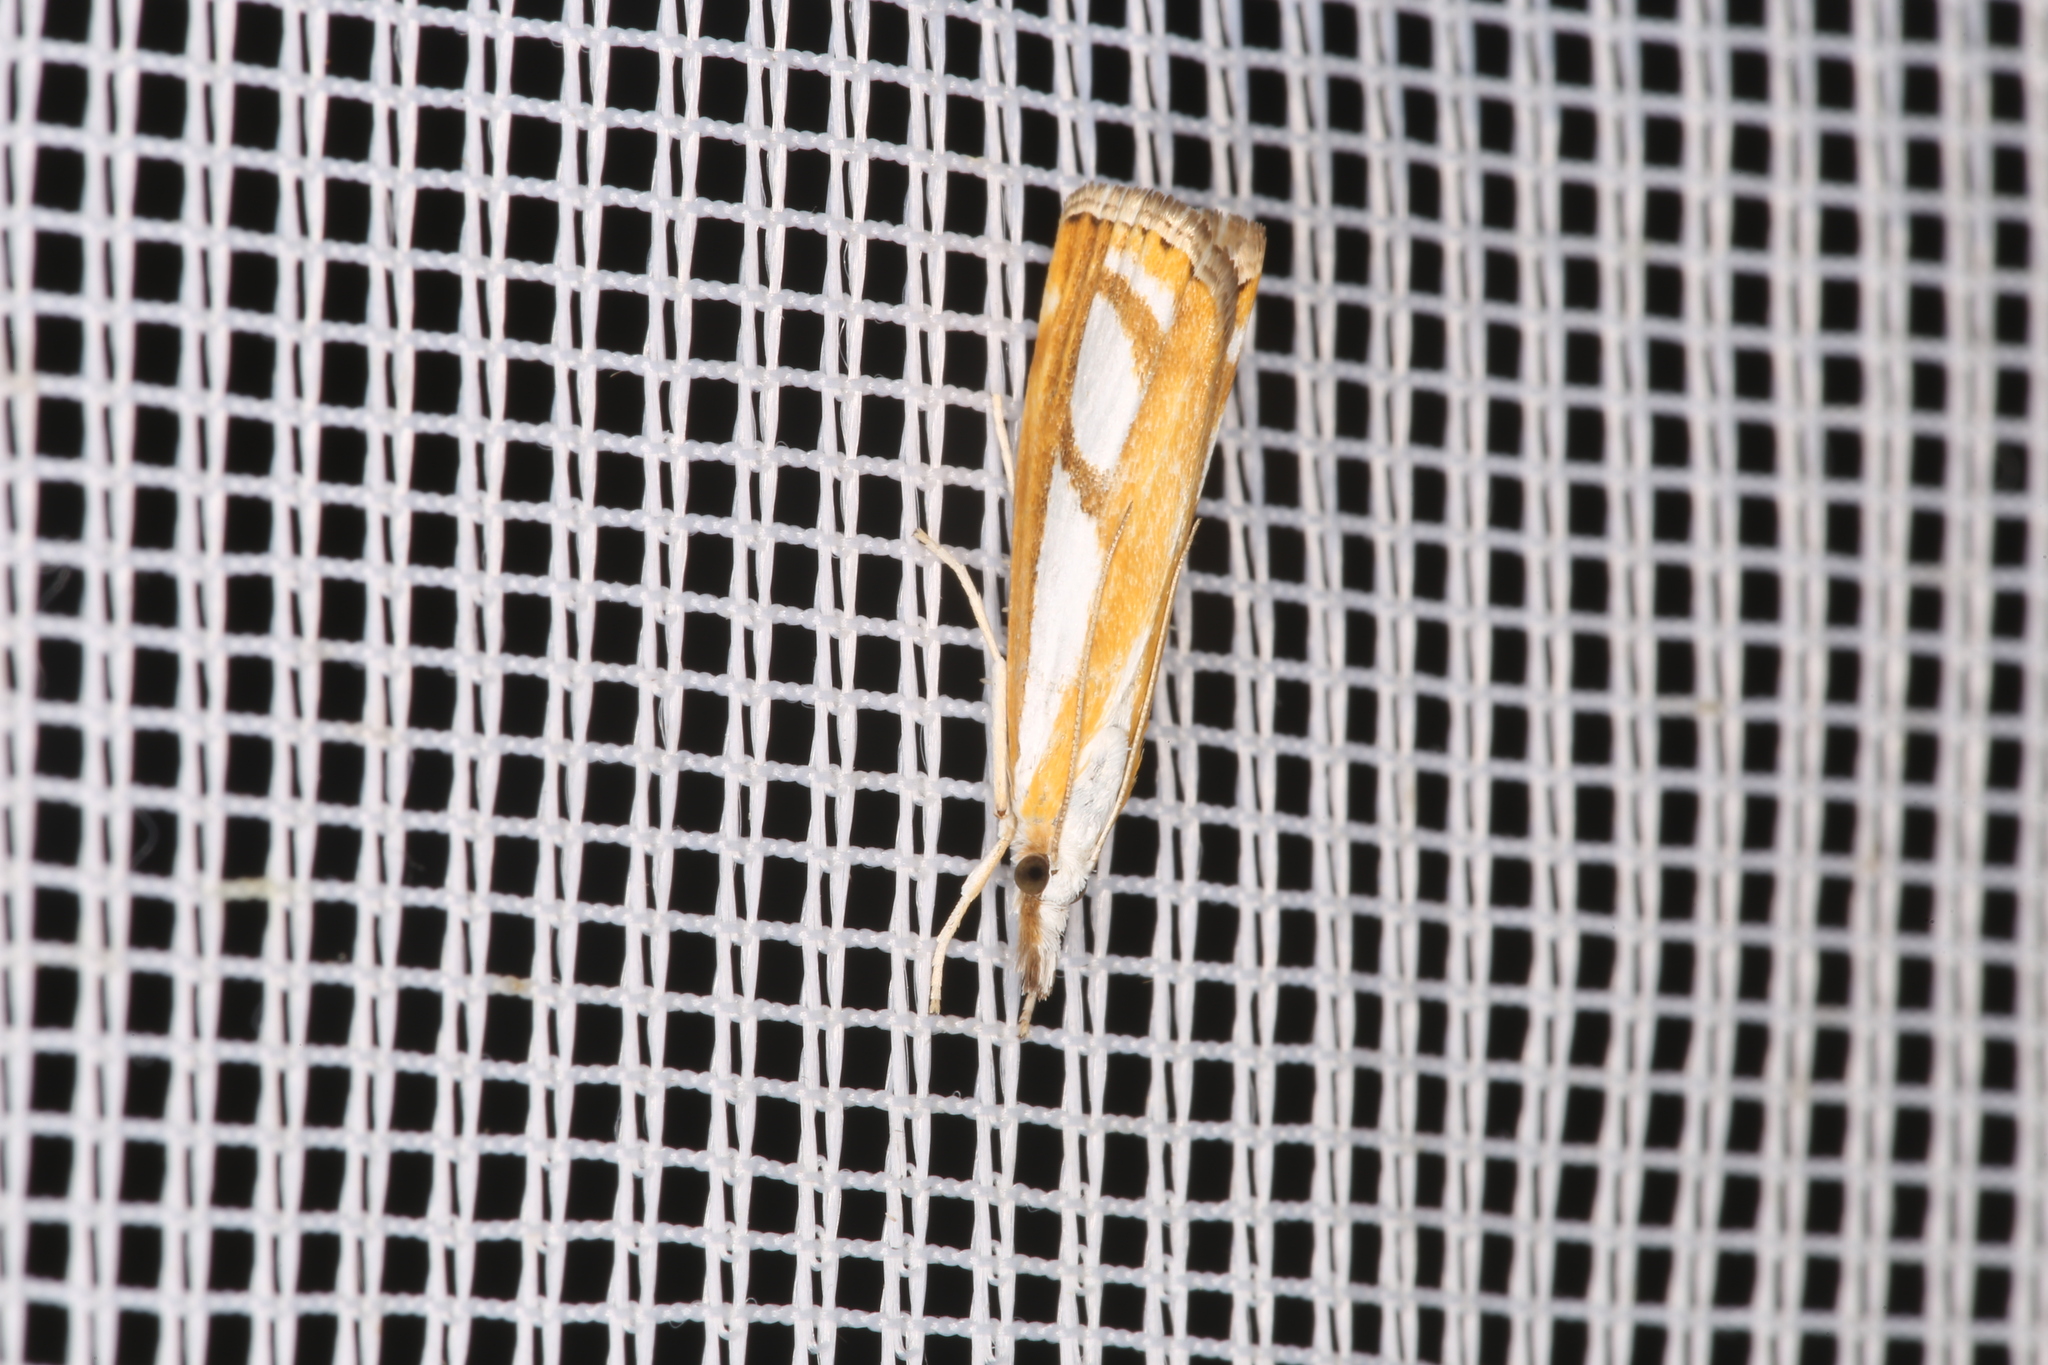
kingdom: Animalia
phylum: Arthropoda
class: Insecta
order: Lepidoptera
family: Crambidae
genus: Catoptria
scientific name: Catoptria
